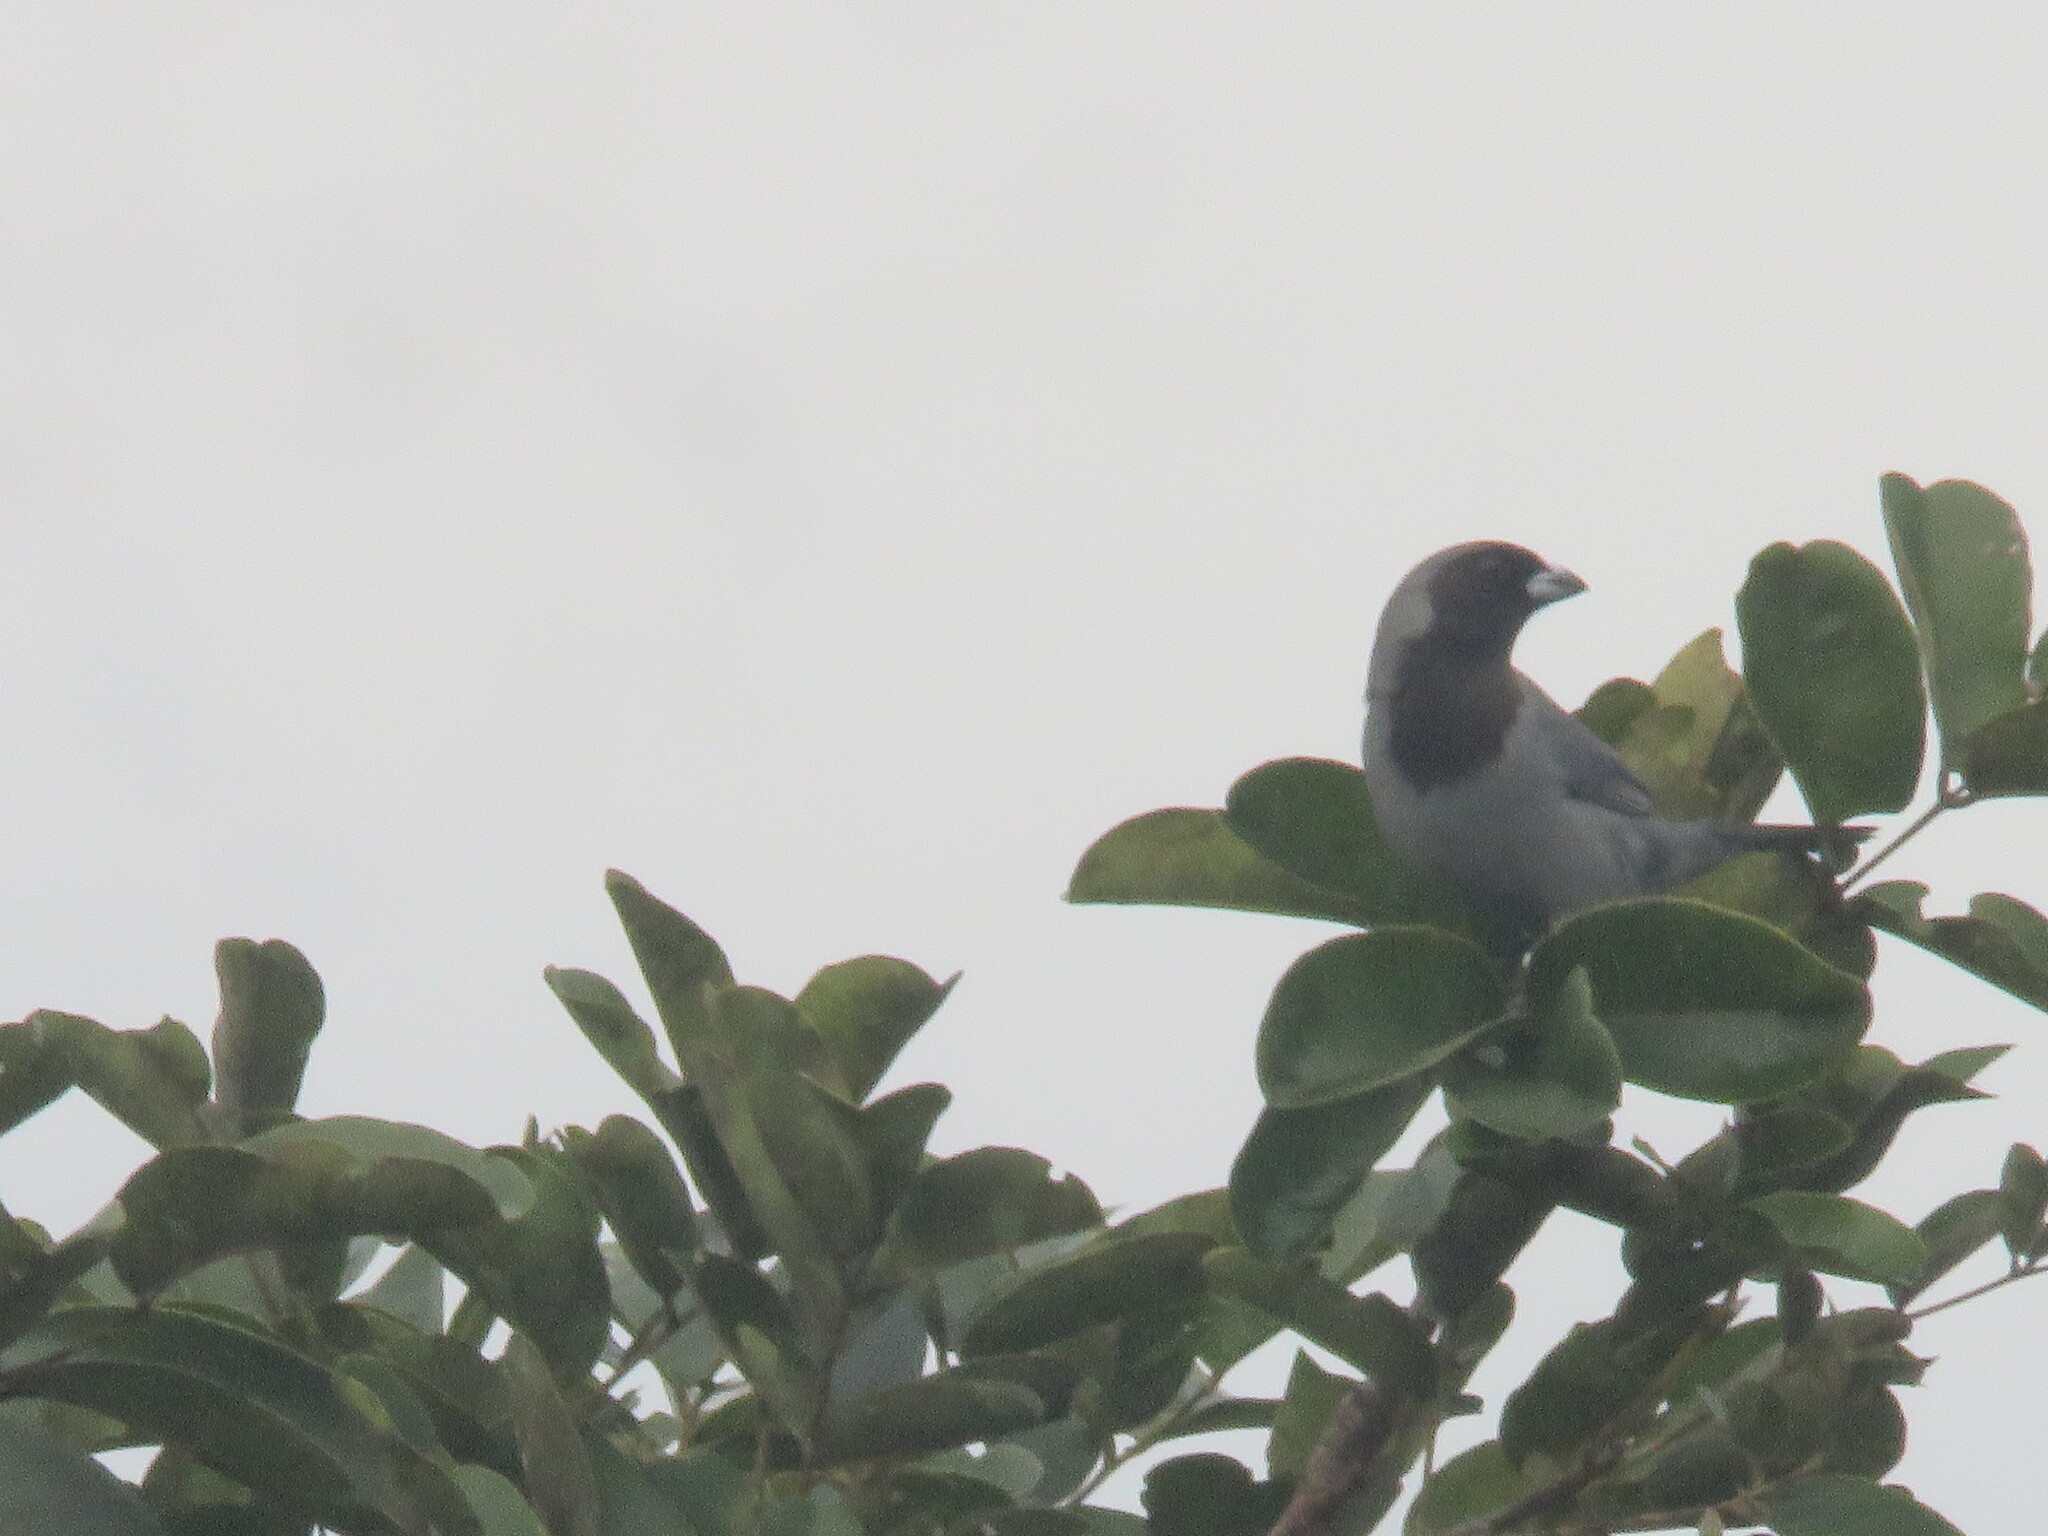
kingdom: Animalia
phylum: Chordata
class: Aves
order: Passeriformes
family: Thraupidae
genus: Schistochlamys
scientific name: Schistochlamys melanopis
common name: Black-faced tanager
